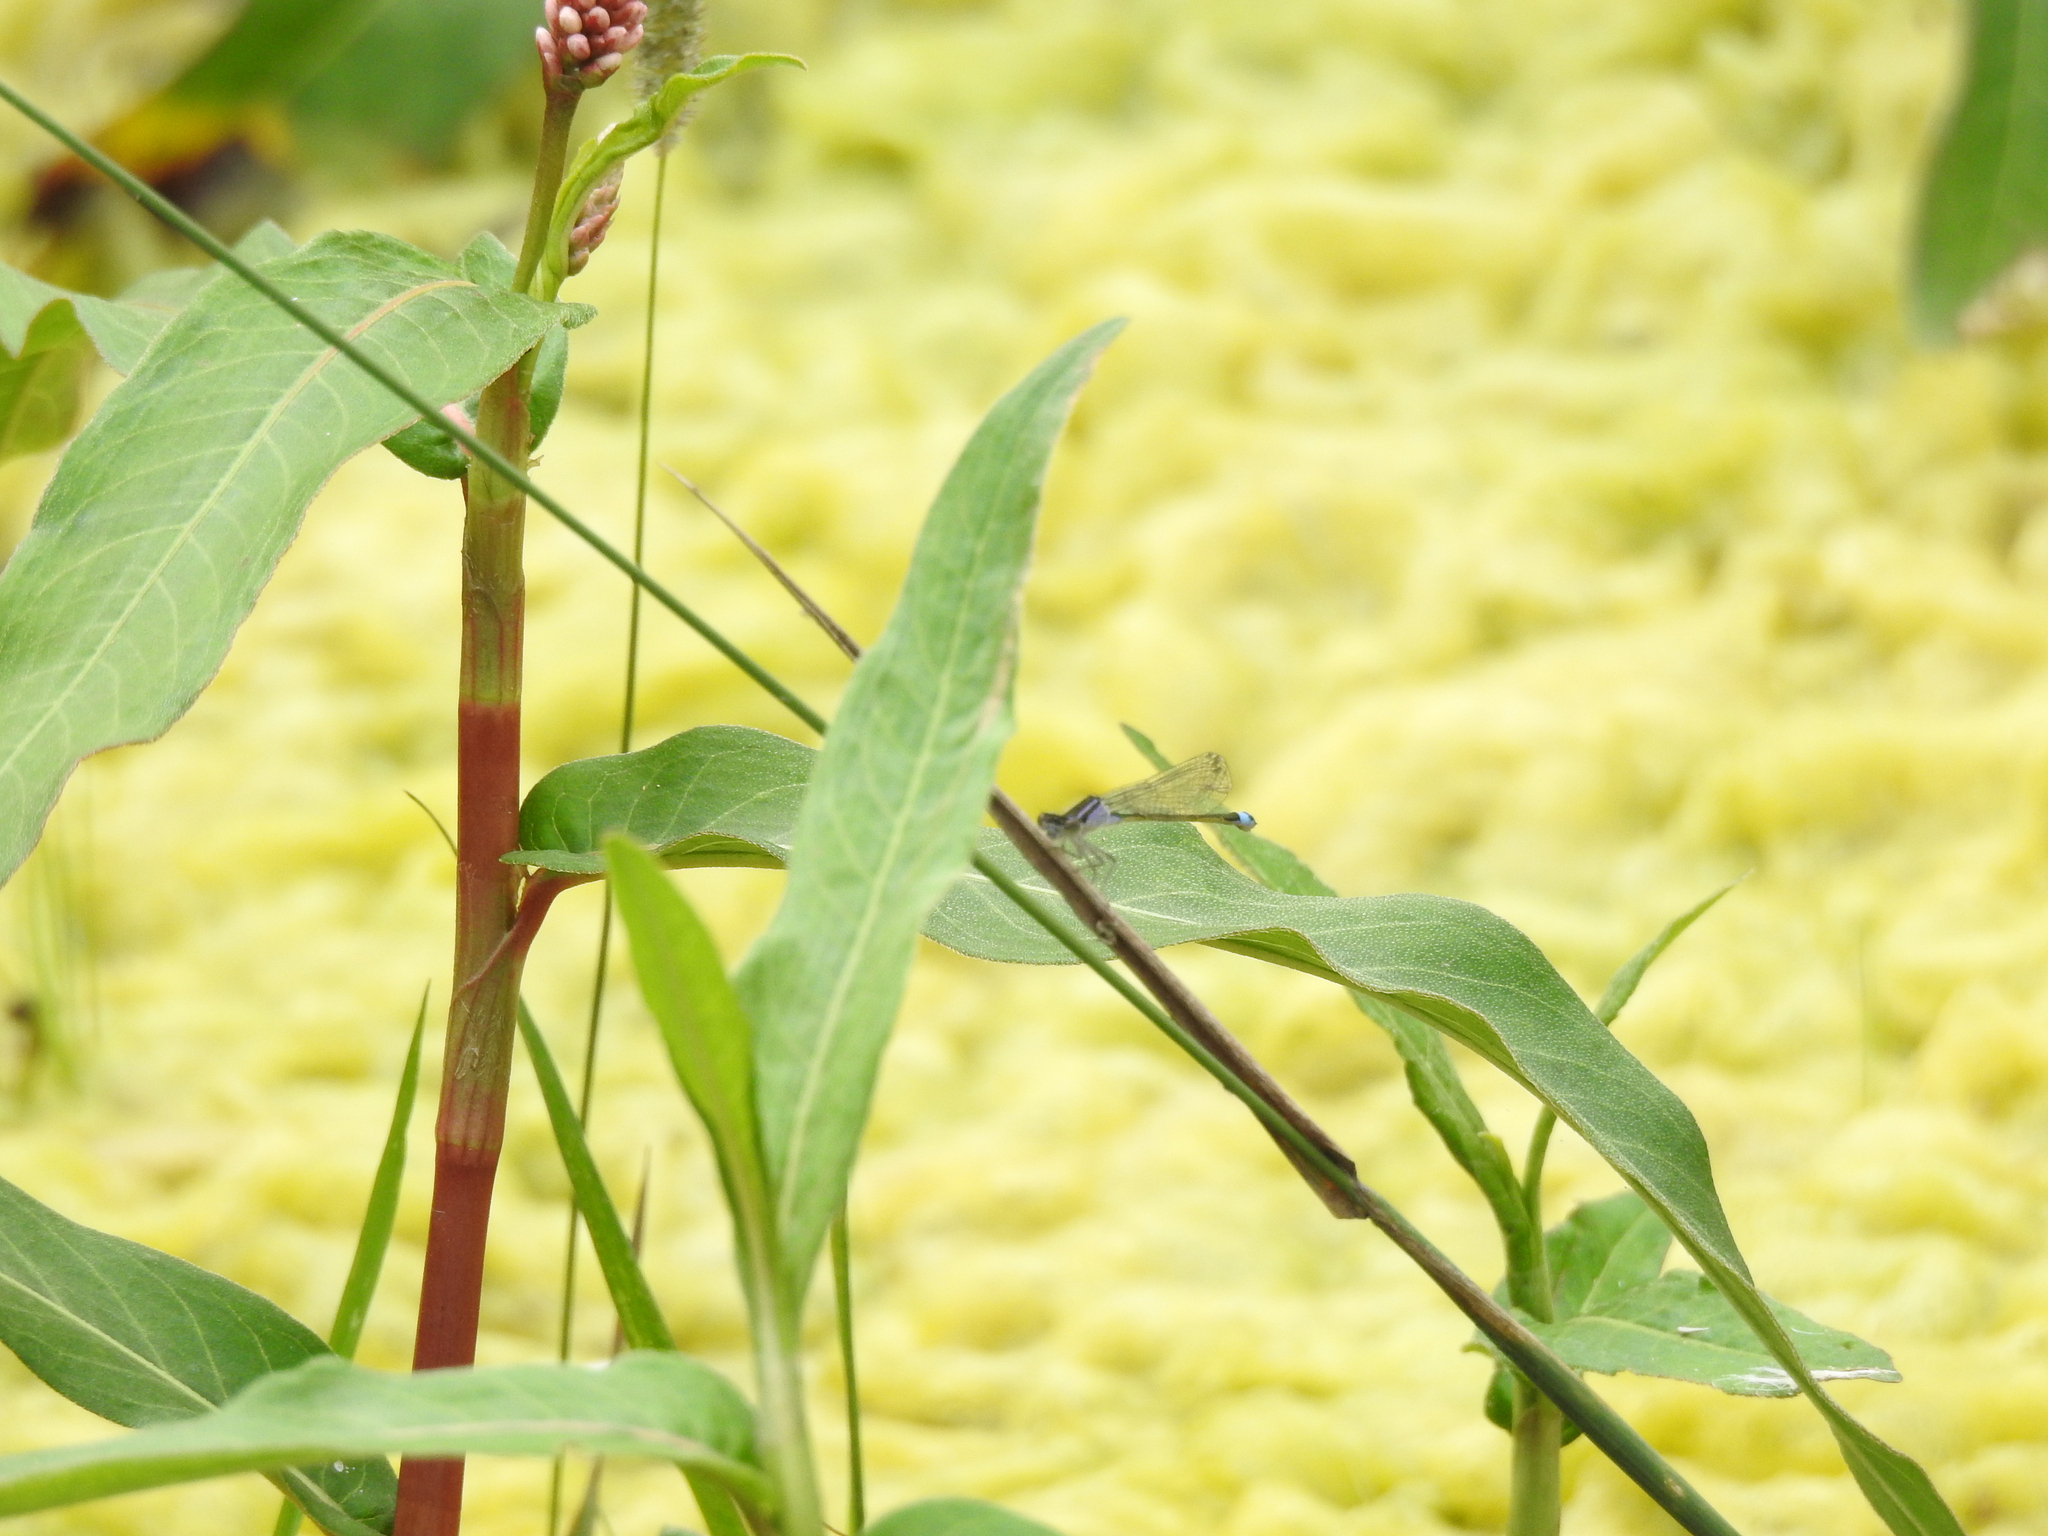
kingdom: Animalia
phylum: Arthropoda
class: Insecta
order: Odonata
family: Coenagrionidae
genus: Ischnura
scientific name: Ischnura elegans
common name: Blue-tailed damselfly
